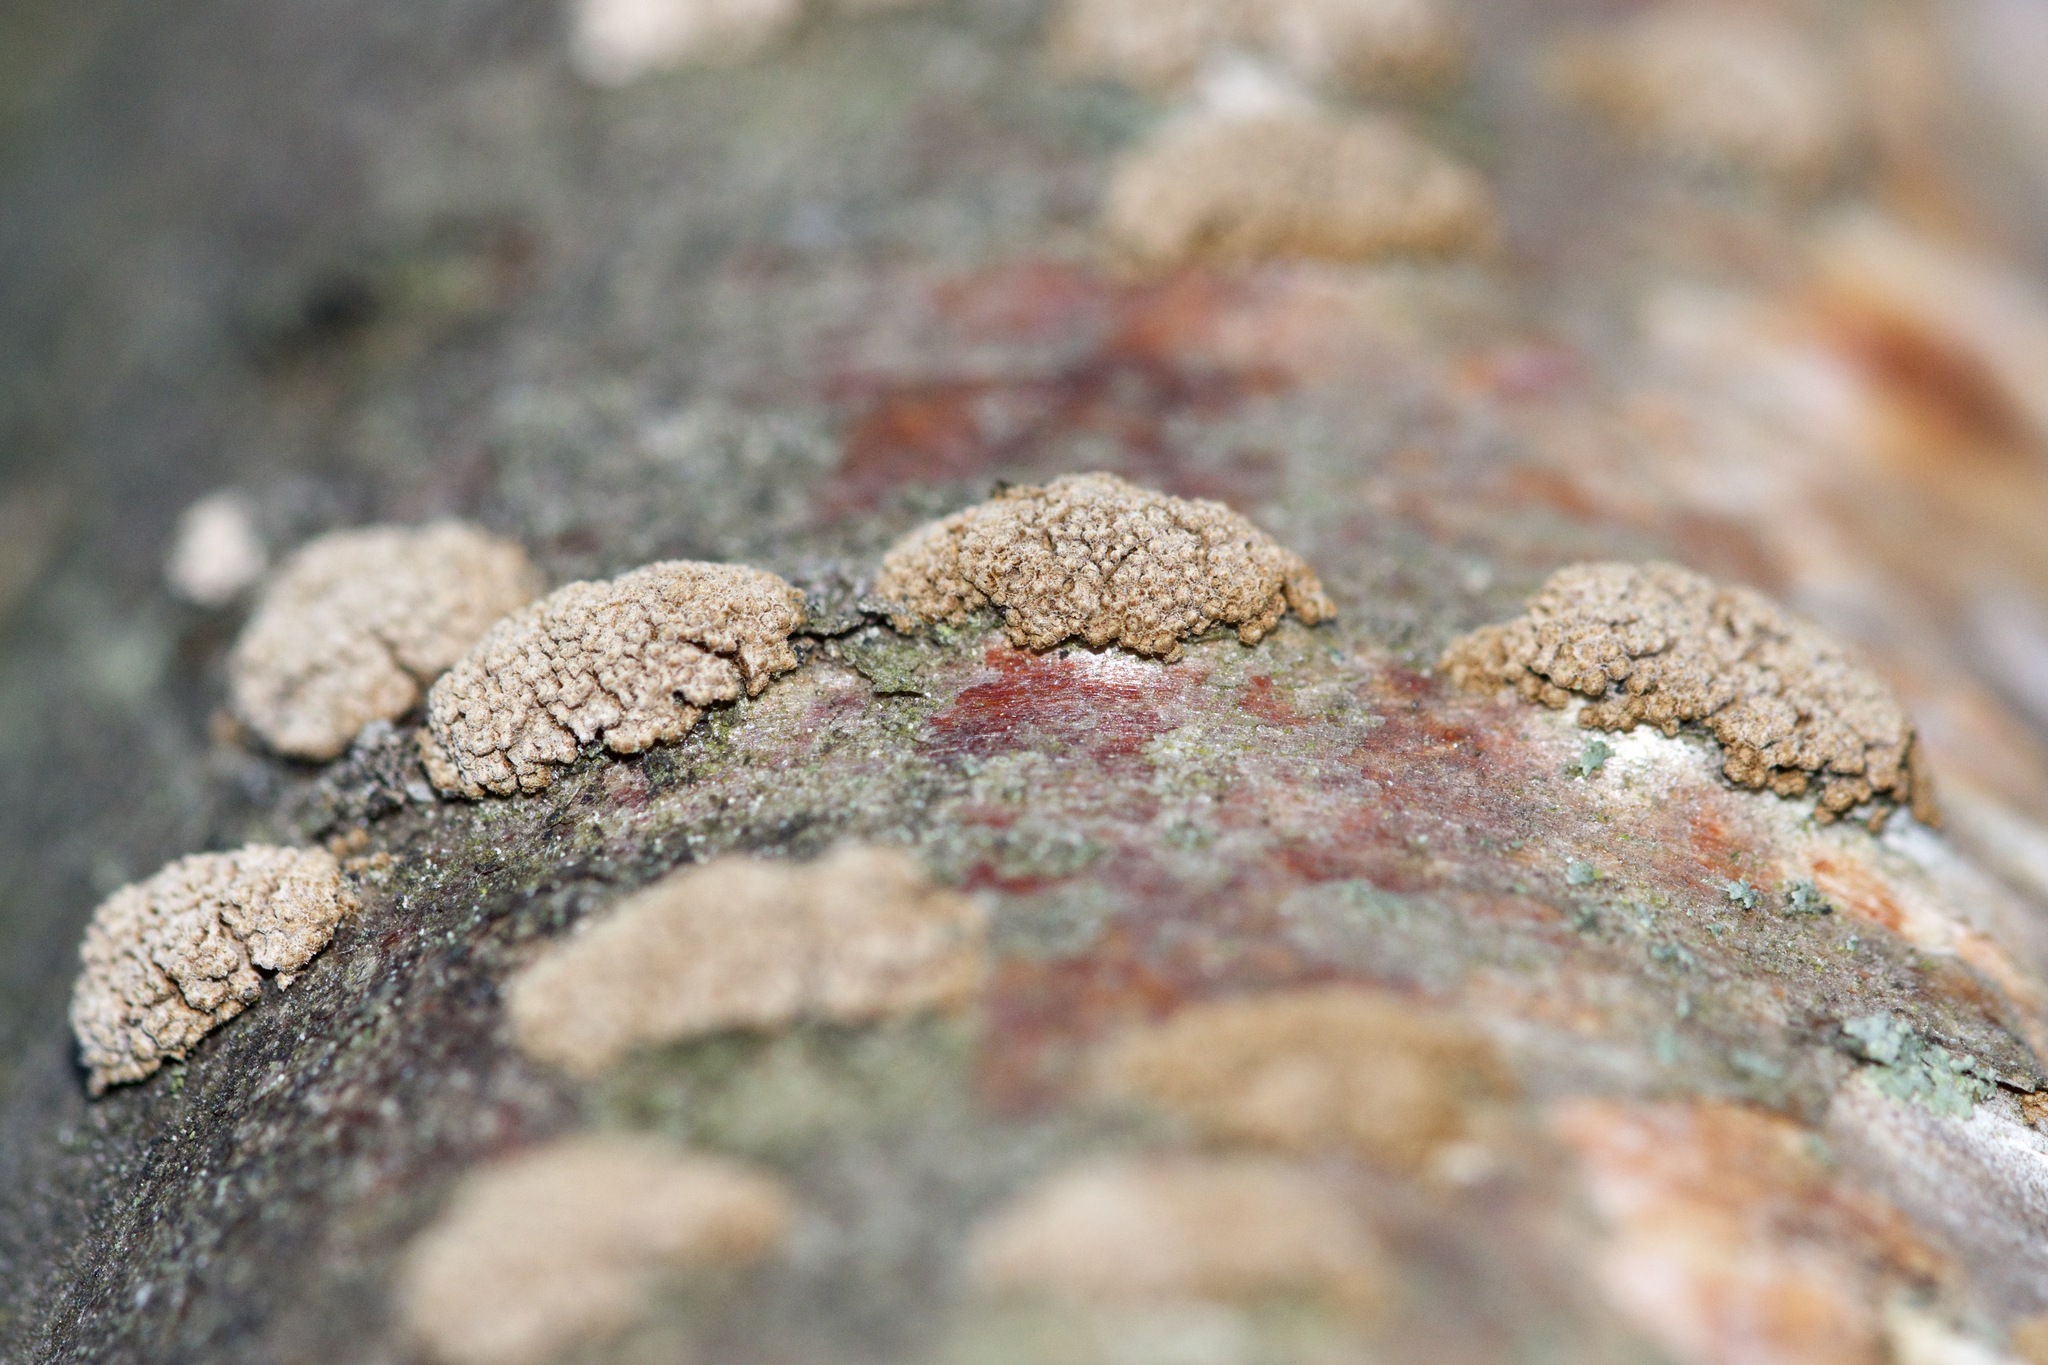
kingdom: Fungi
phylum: Basidiomycota
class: Agaricomycetes
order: Agaricales
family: Niaceae
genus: Merismodes
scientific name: Merismodes anomala
